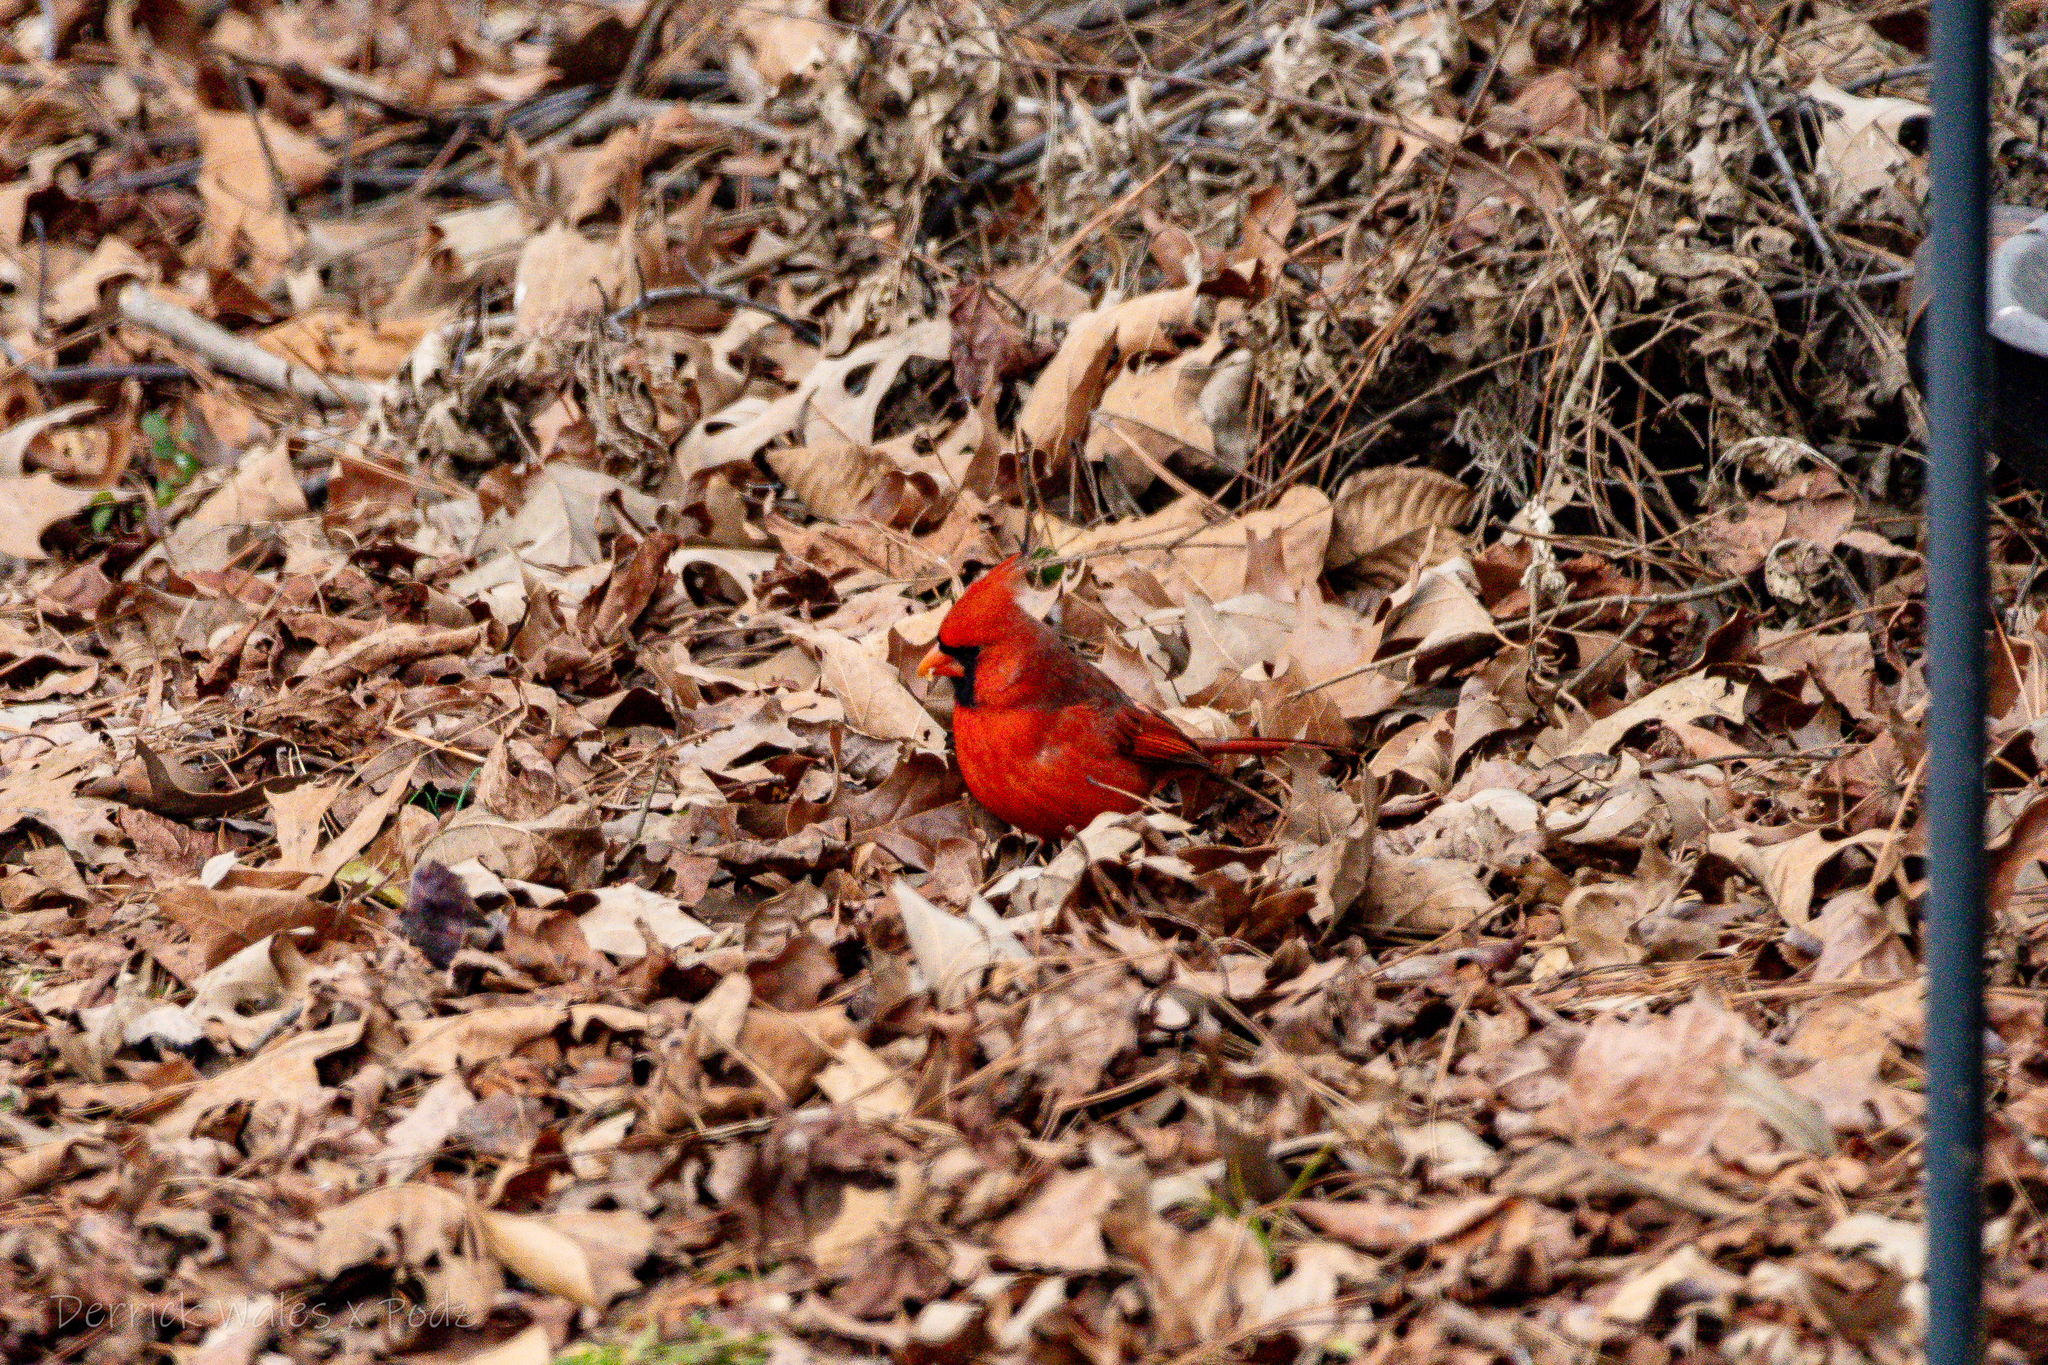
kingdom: Animalia
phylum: Chordata
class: Aves
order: Passeriformes
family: Cardinalidae
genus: Cardinalis
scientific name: Cardinalis cardinalis
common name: Northern cardinal
